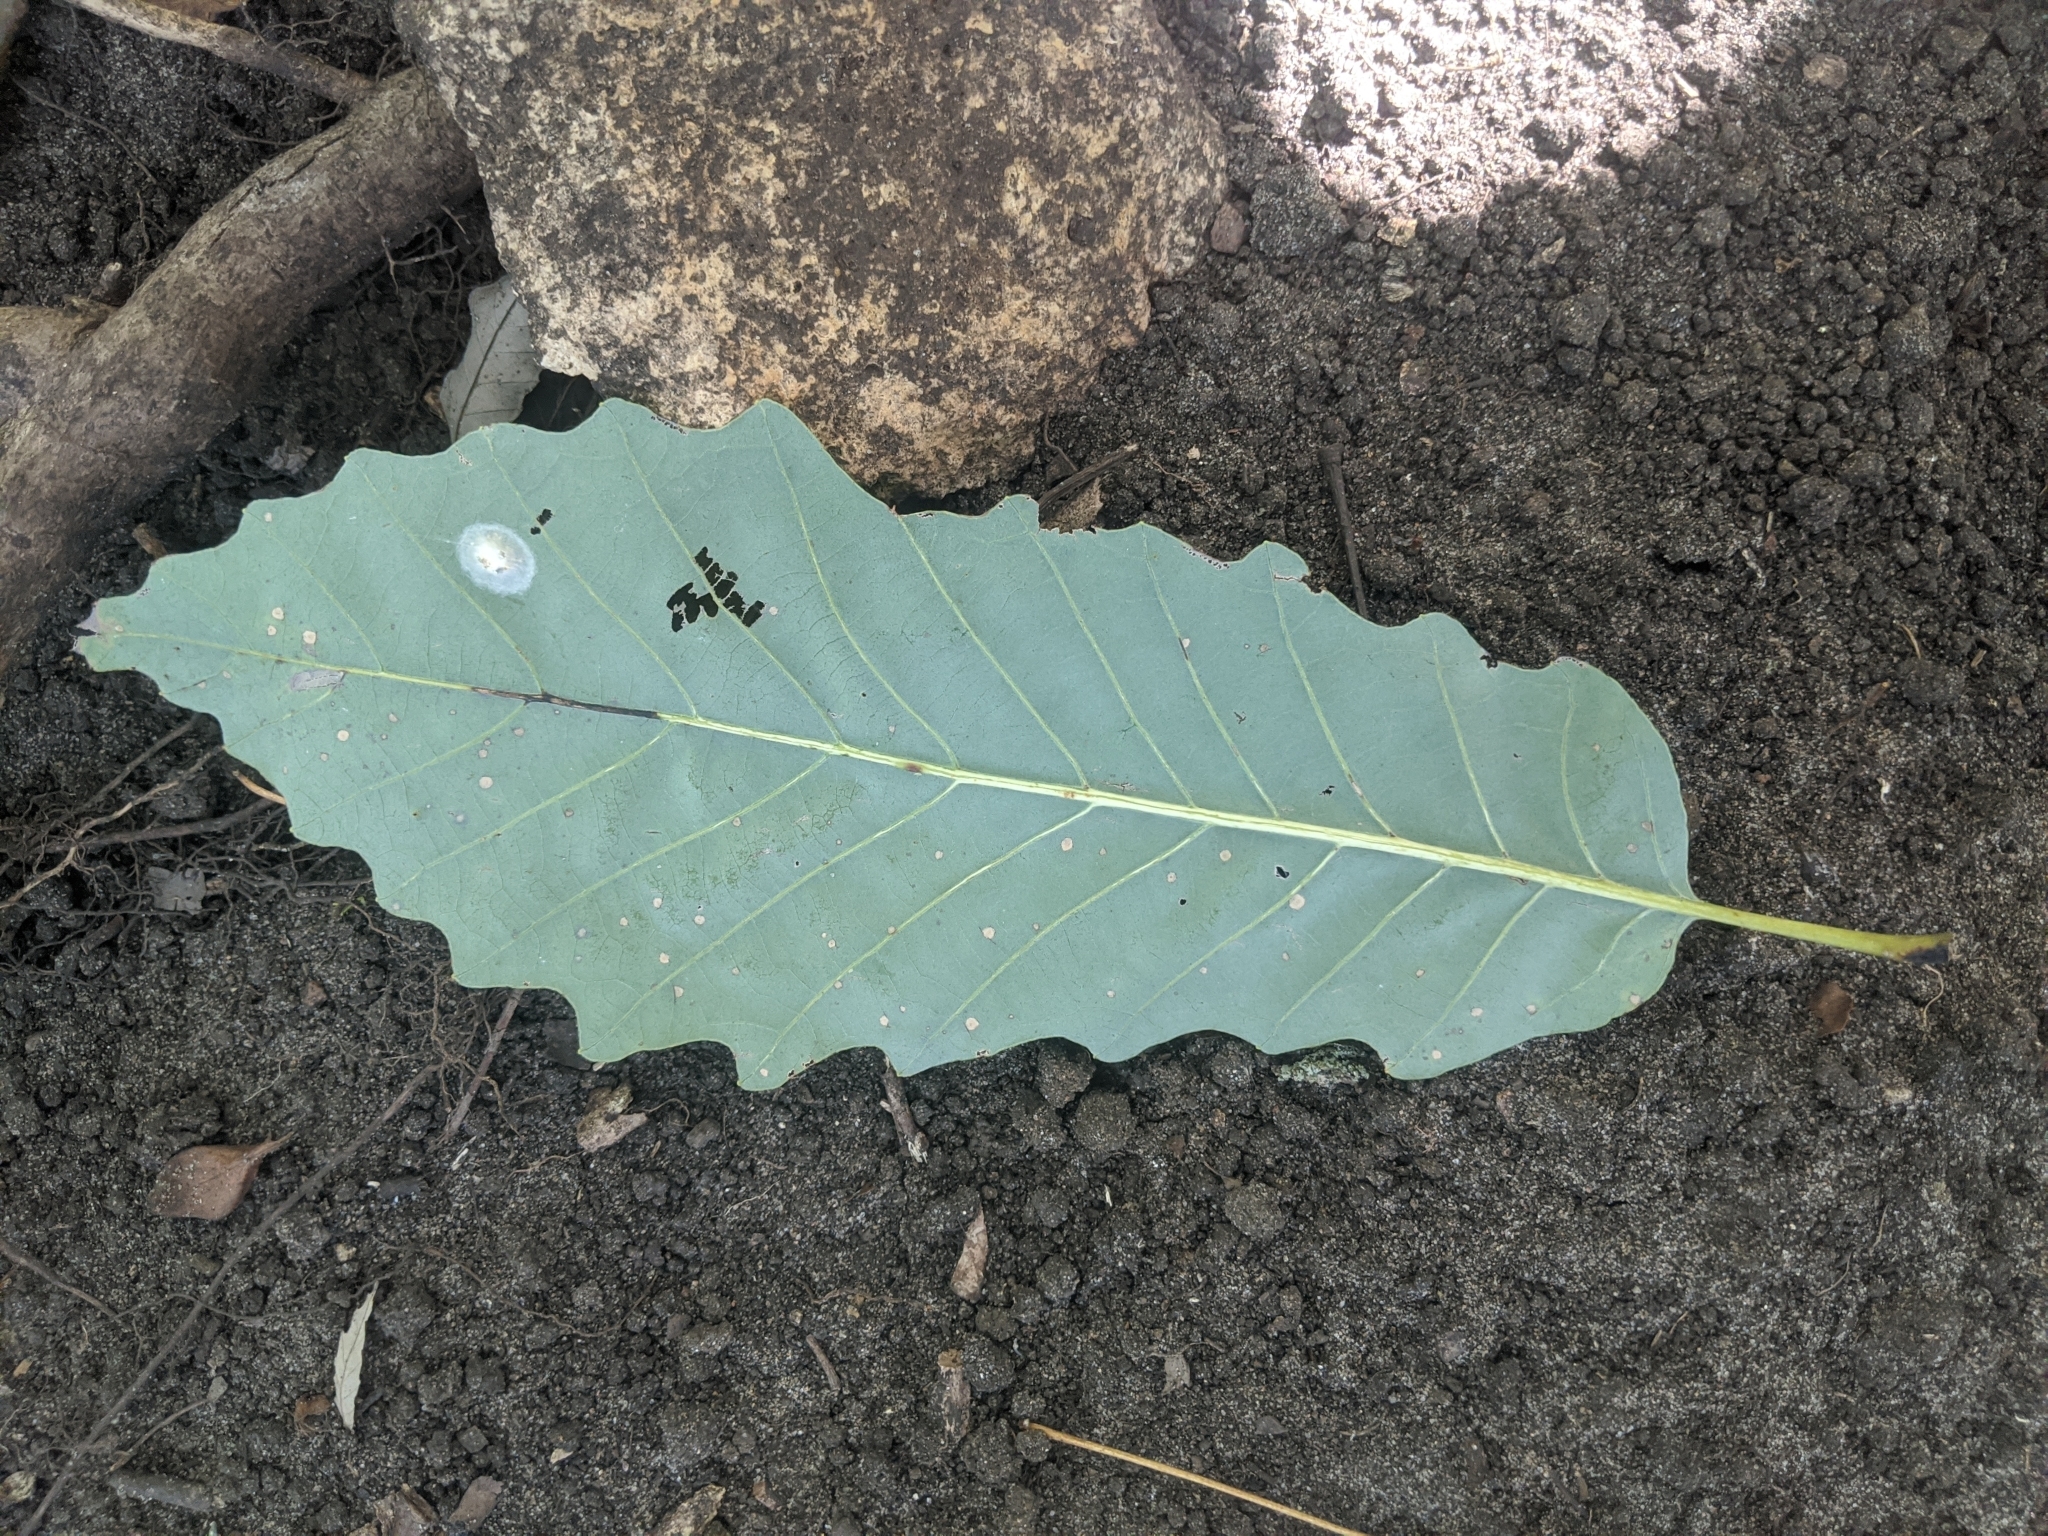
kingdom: Plantae
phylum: Tracheophyta
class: Magnoliopsida
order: Fagales
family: Fagaceae
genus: Quercus
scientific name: Quercus muehlenbergii
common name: Chinkapin oak
